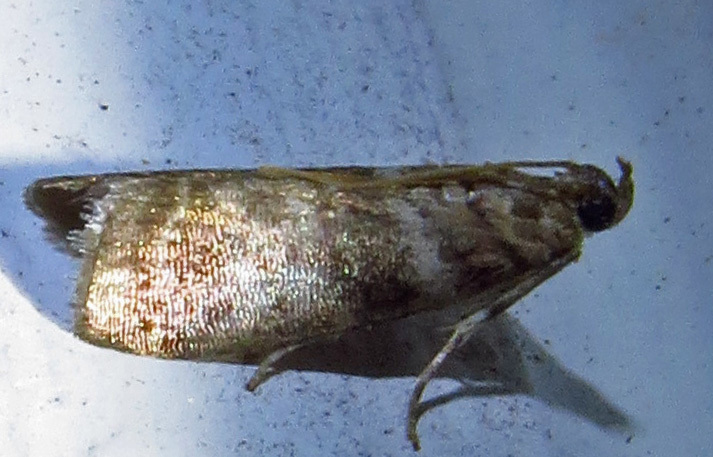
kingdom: Animalia
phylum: Arthropoda
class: Insecta
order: Lepidoptera
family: Pyralidae
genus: Sciota
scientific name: Sciota uvinella
